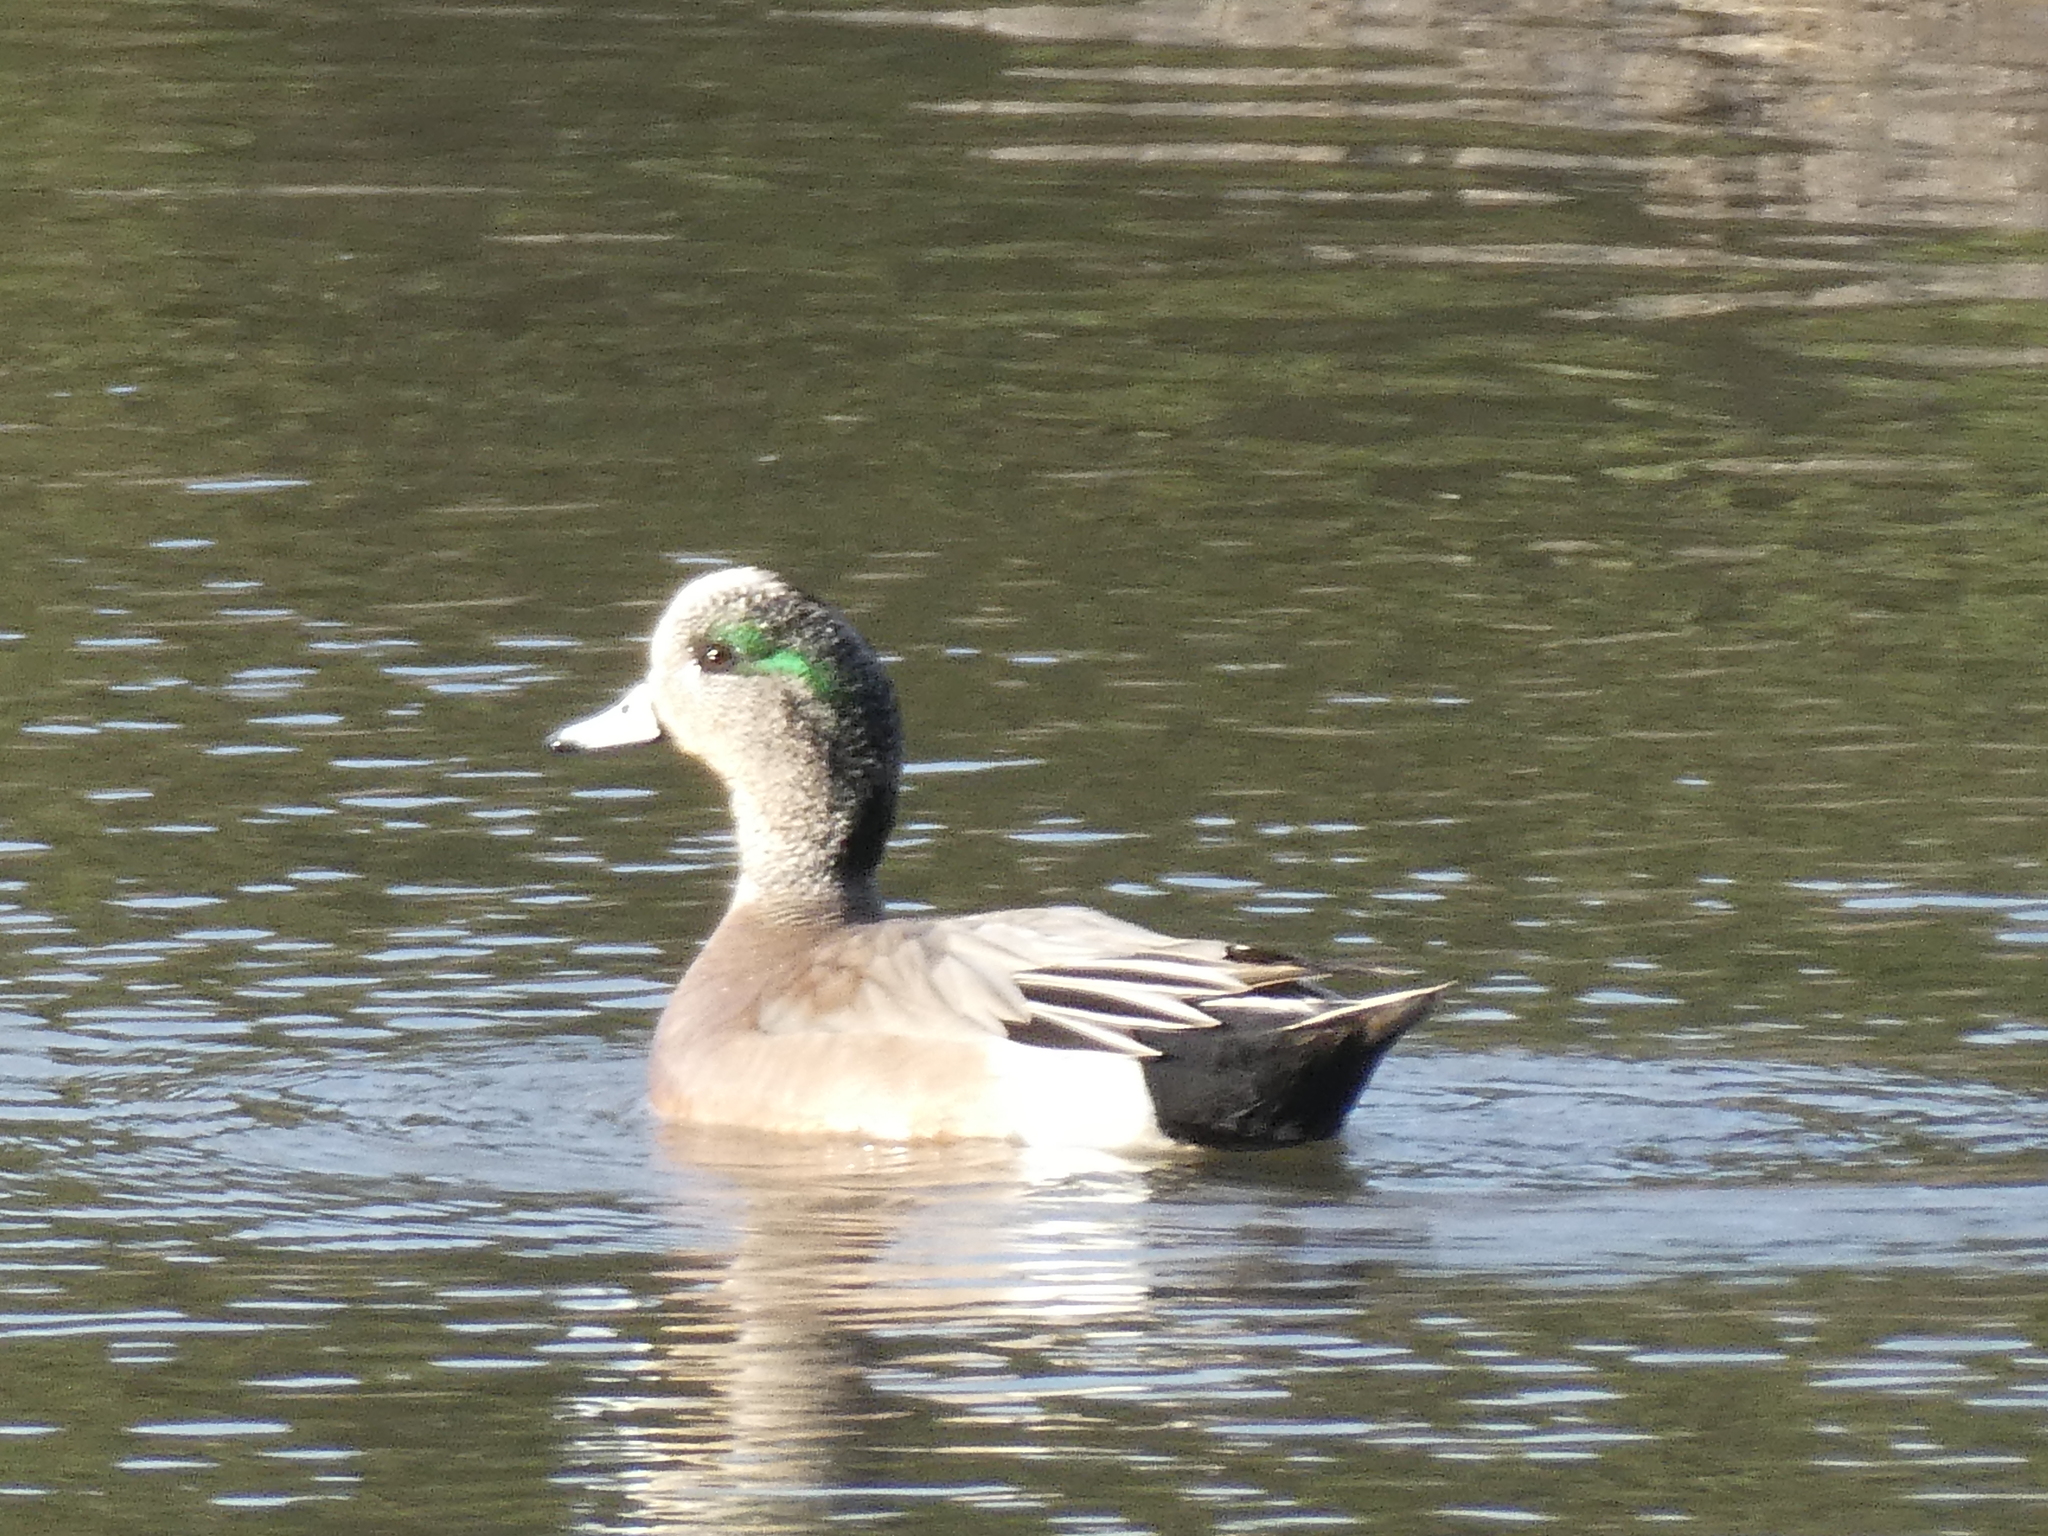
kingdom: Animalia
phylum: Chordata
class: Aves
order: Anseriformes
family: Anatidae
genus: Mareca
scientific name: Mareca americana
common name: American wigeon
